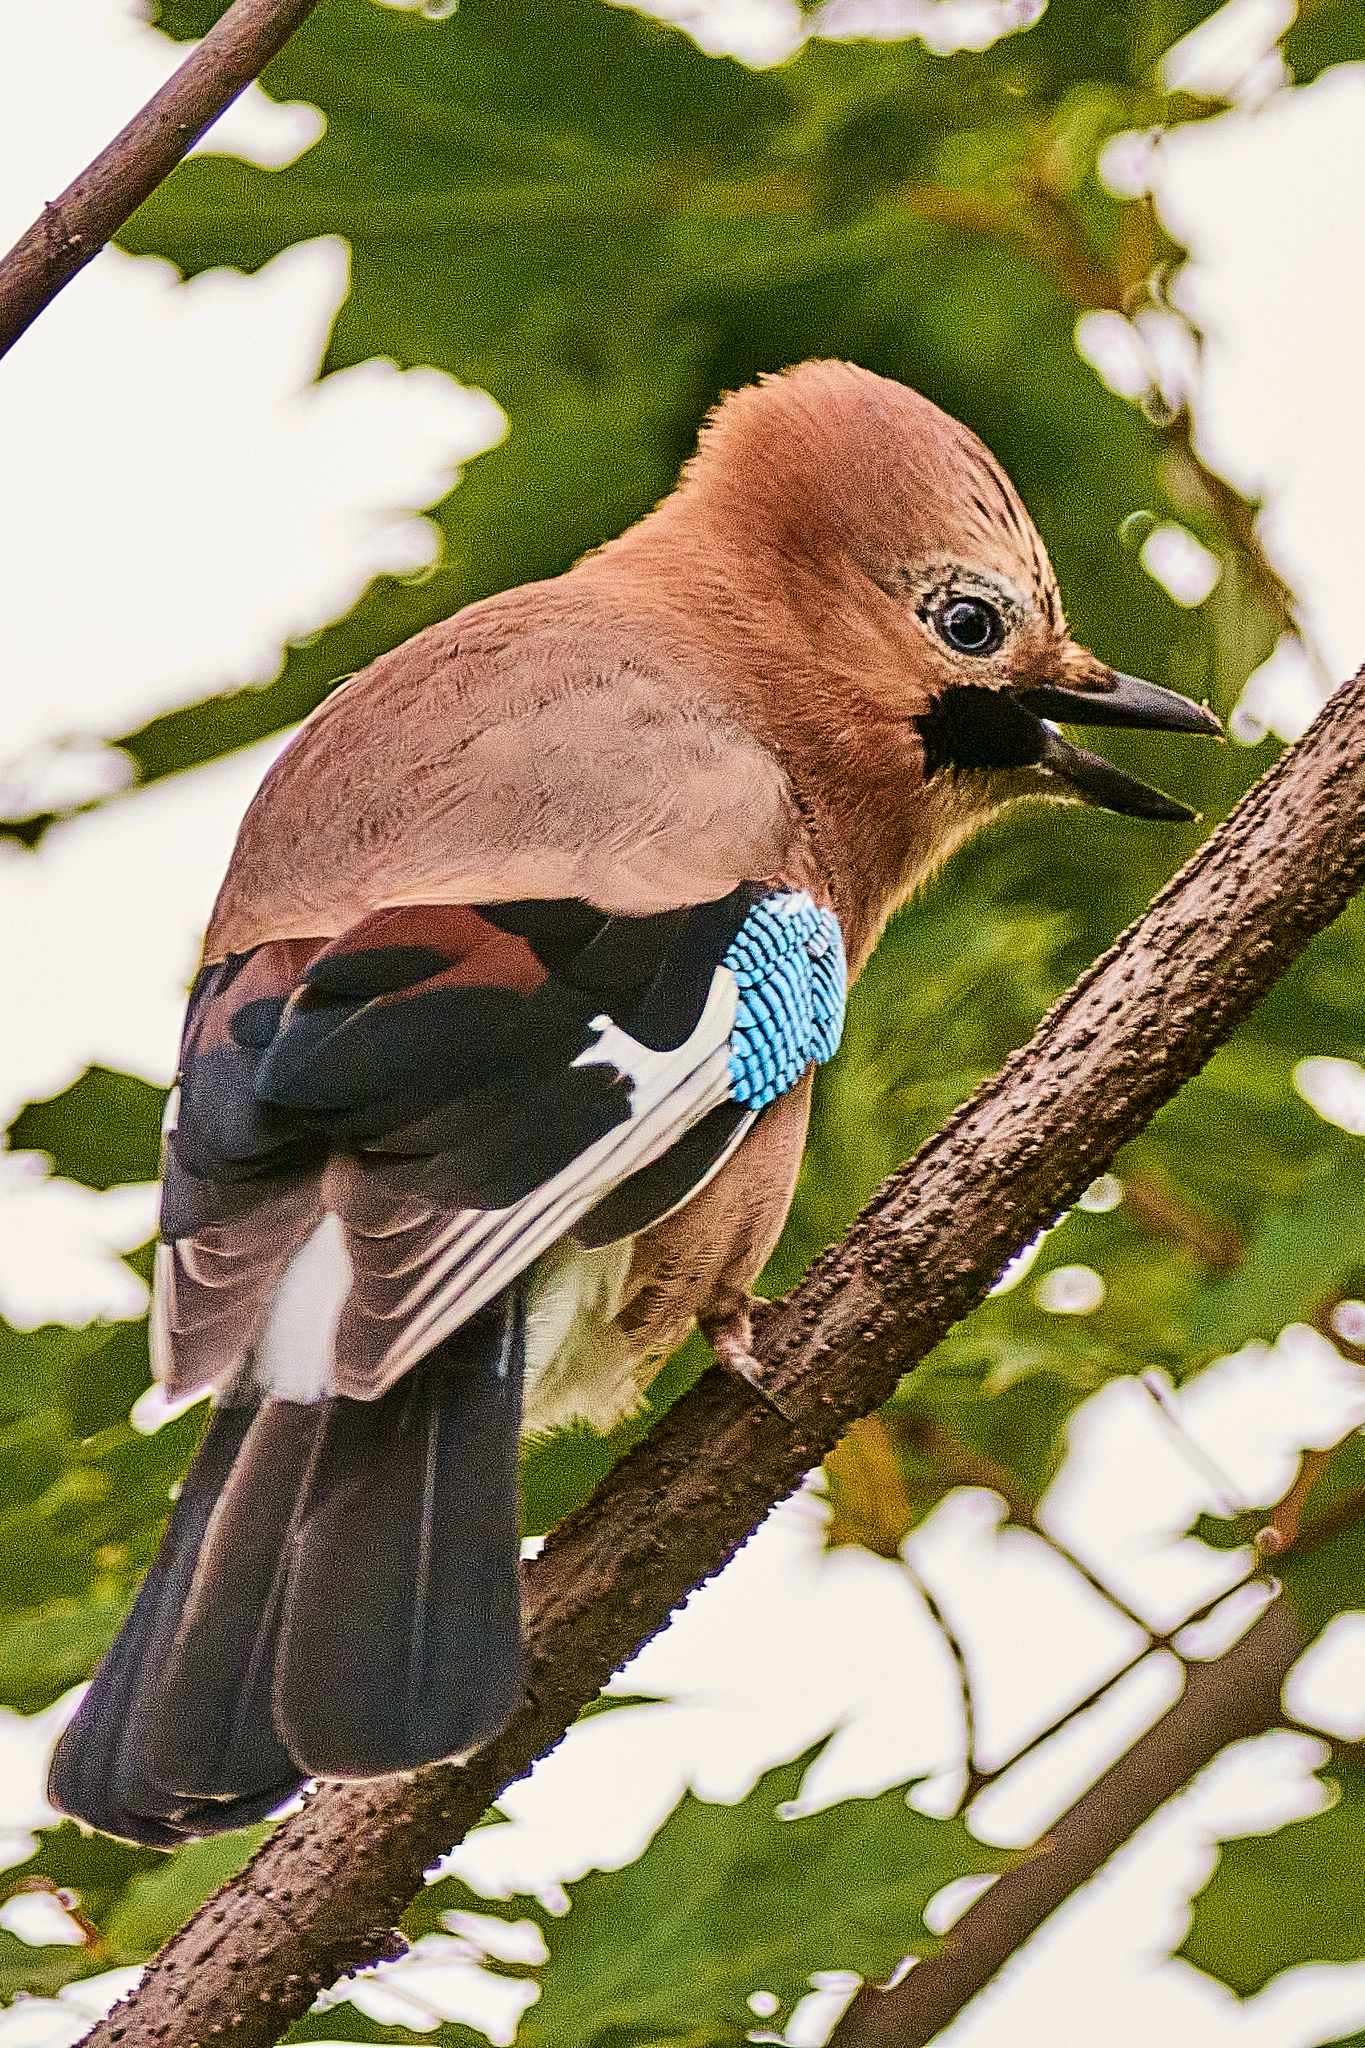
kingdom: Animalia
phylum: Chordata
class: Aves
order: Passeriformes
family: Corvidae
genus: Garrulus
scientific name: Garrulus glandarius
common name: Eurasian jay
